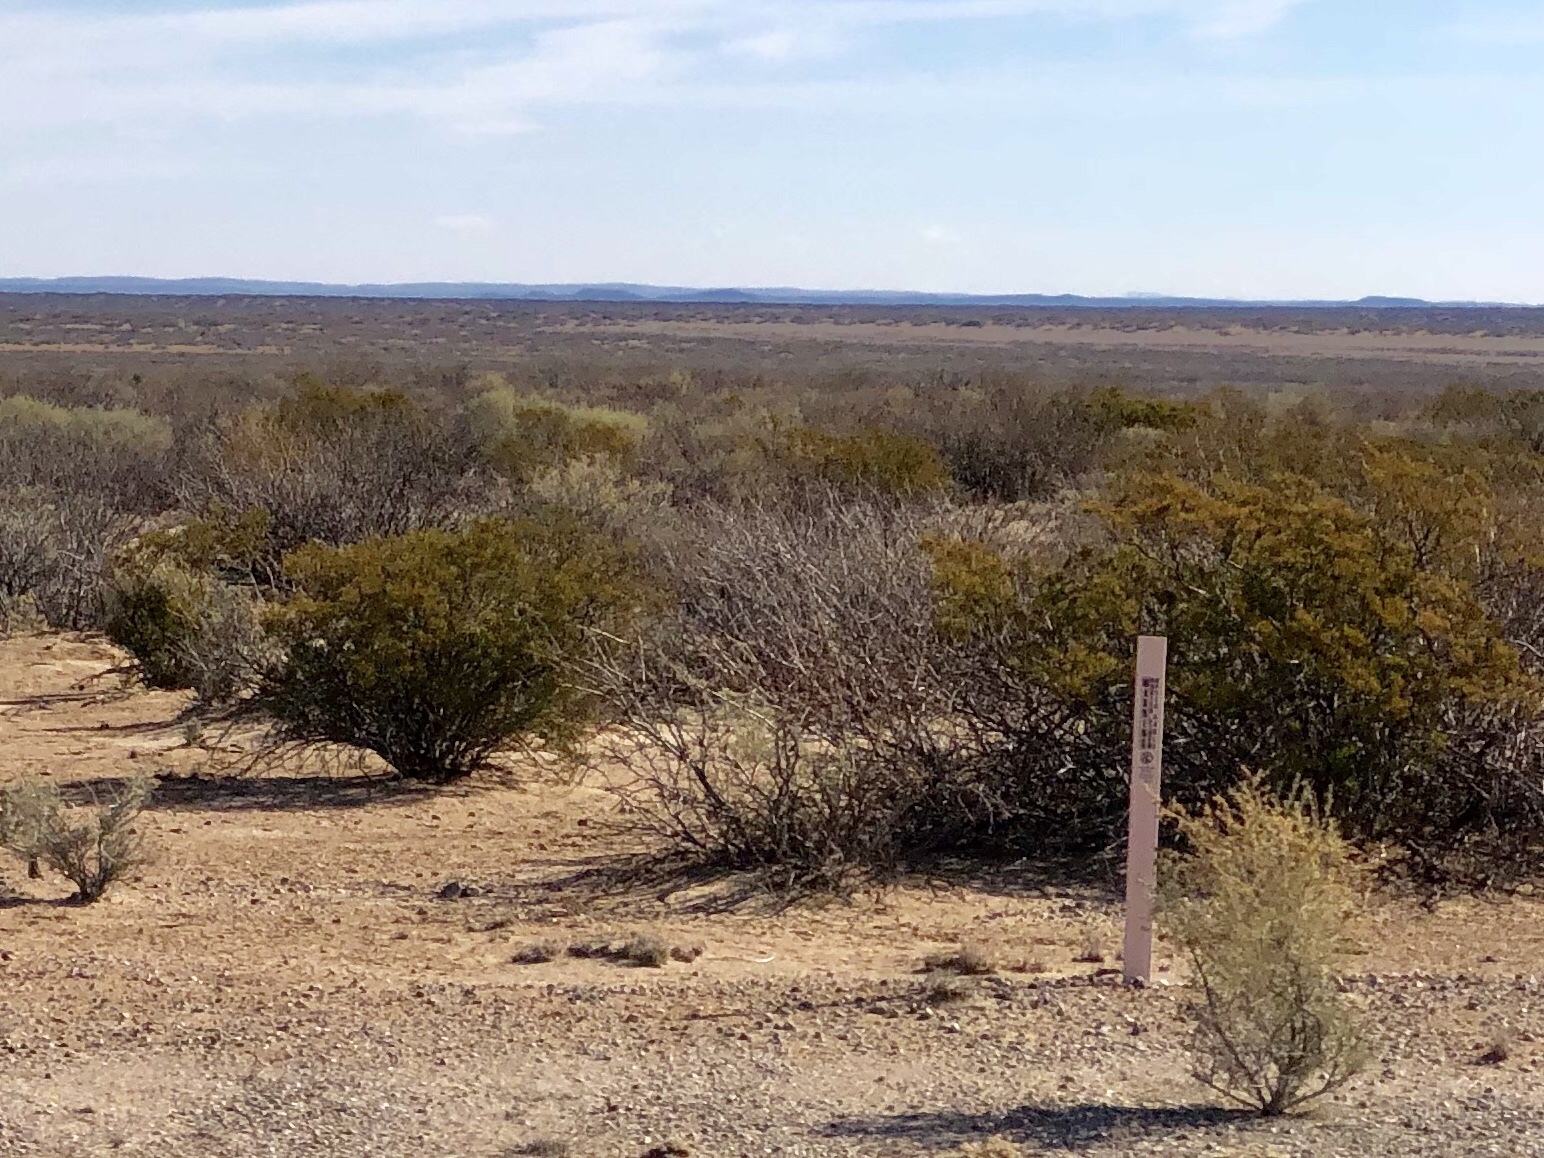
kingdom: Plantae
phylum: Tracheophyta
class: Magnoliopsida
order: Zygophyllales
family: Zygophyllaceae
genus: Larrea
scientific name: Larrea tridentata
